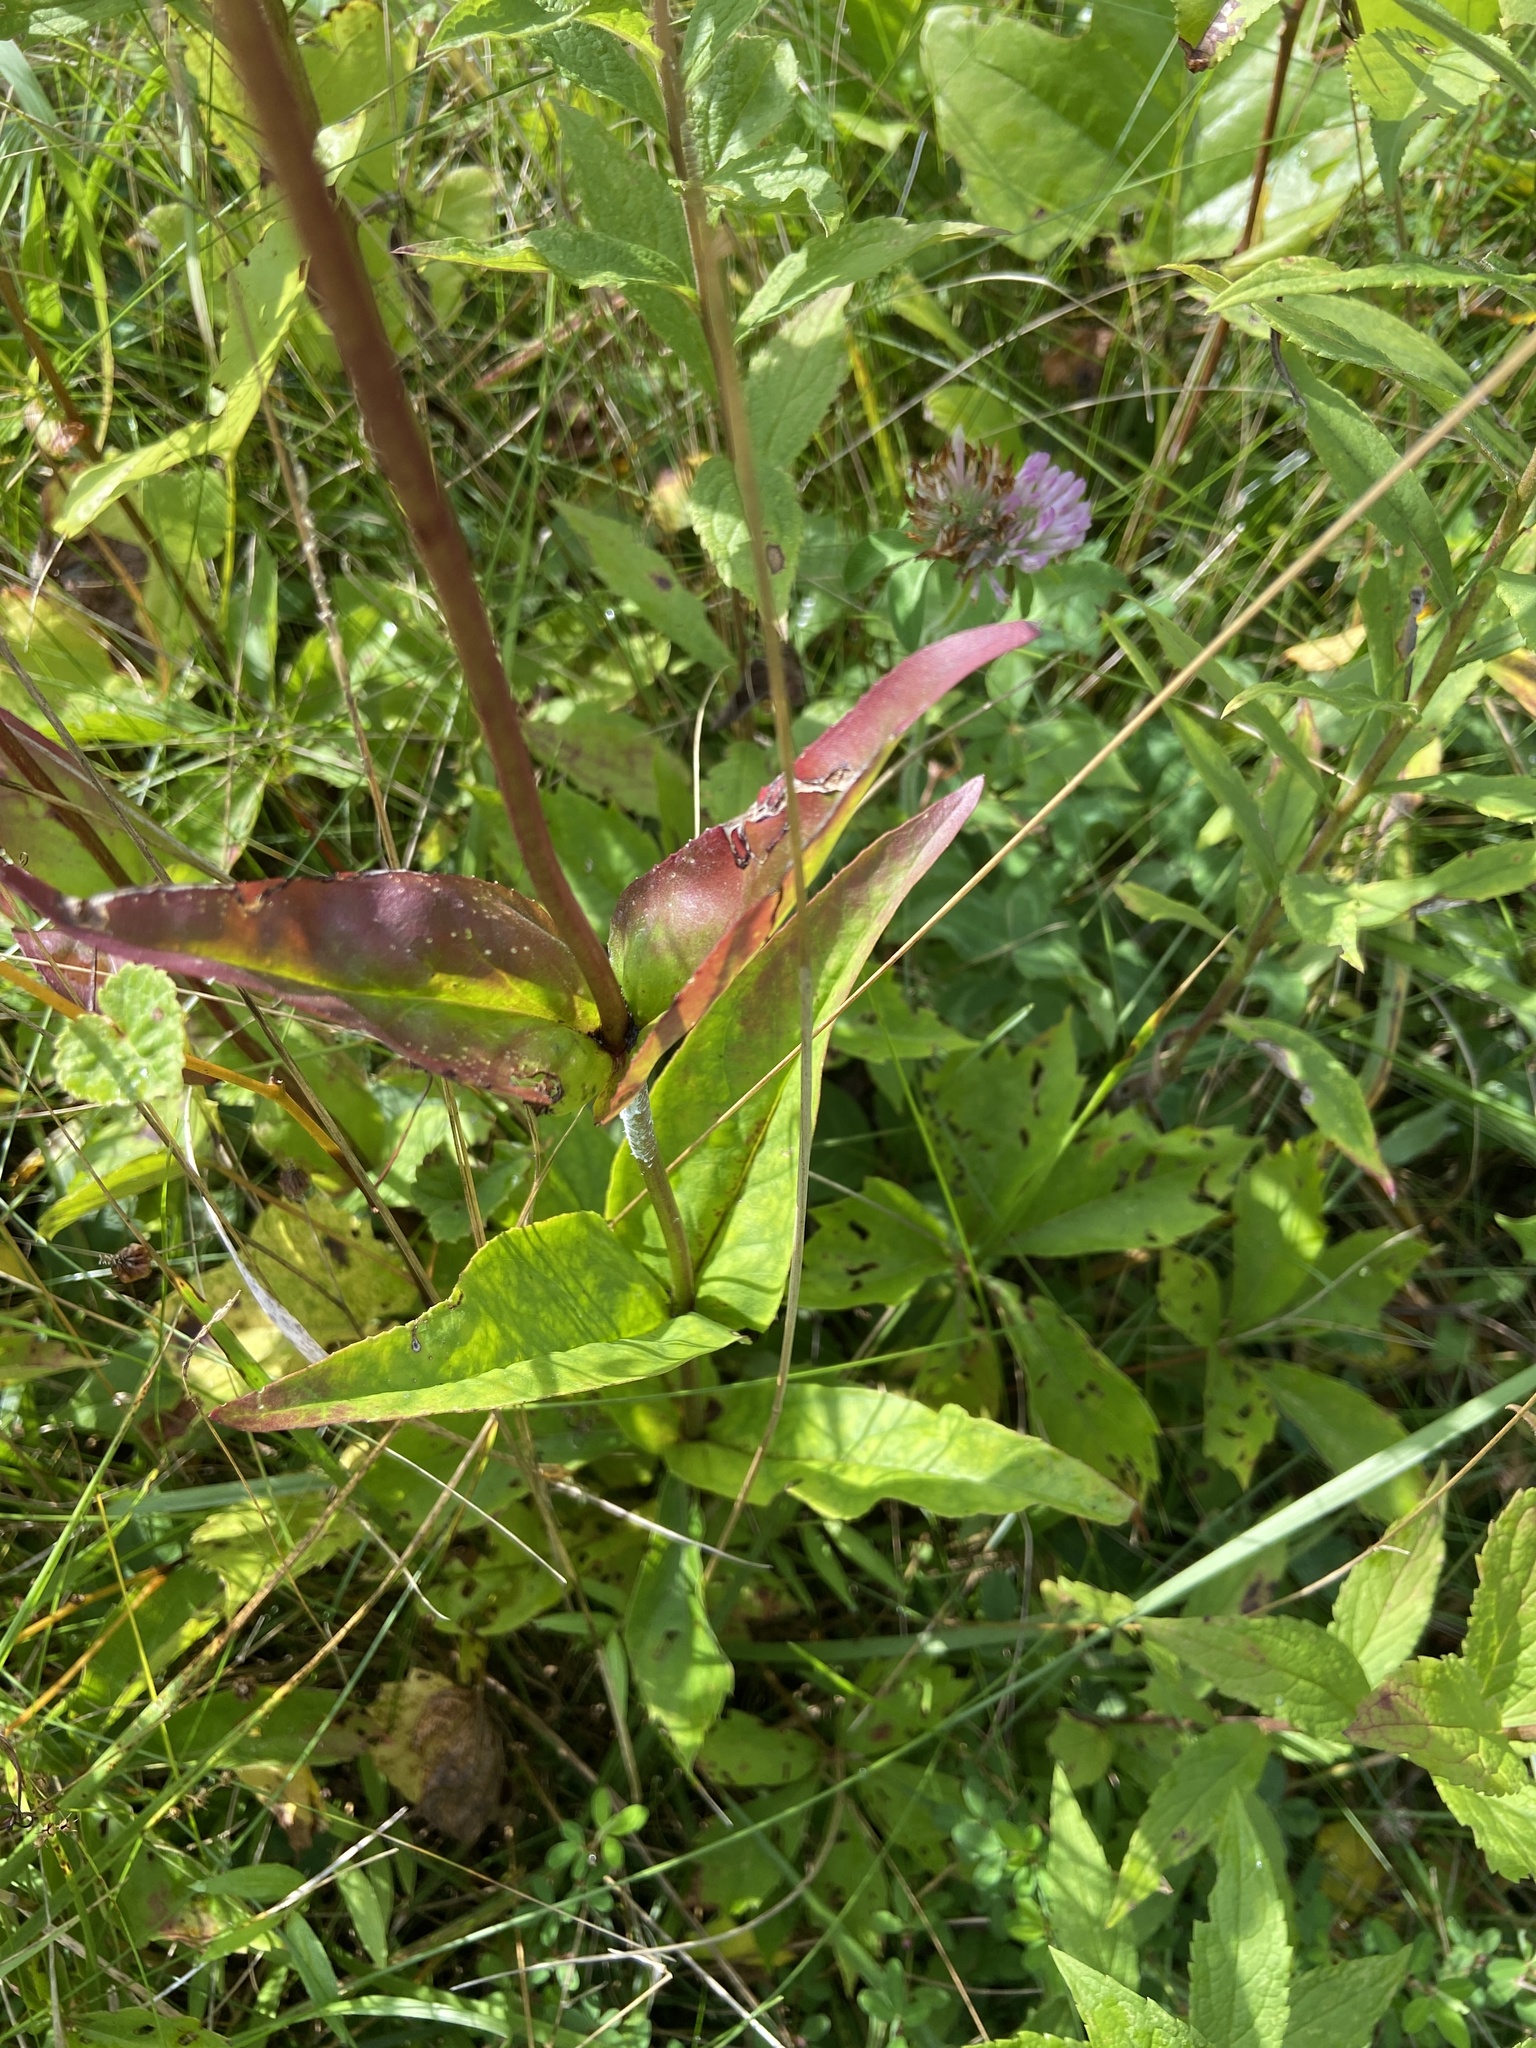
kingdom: Plantae
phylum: Tracheophyta
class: Magnoliopsida
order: Lamiales
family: Plantaginaceae
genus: Penstemon
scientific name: Penstemon digitalis
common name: Foxglove beardtongue
